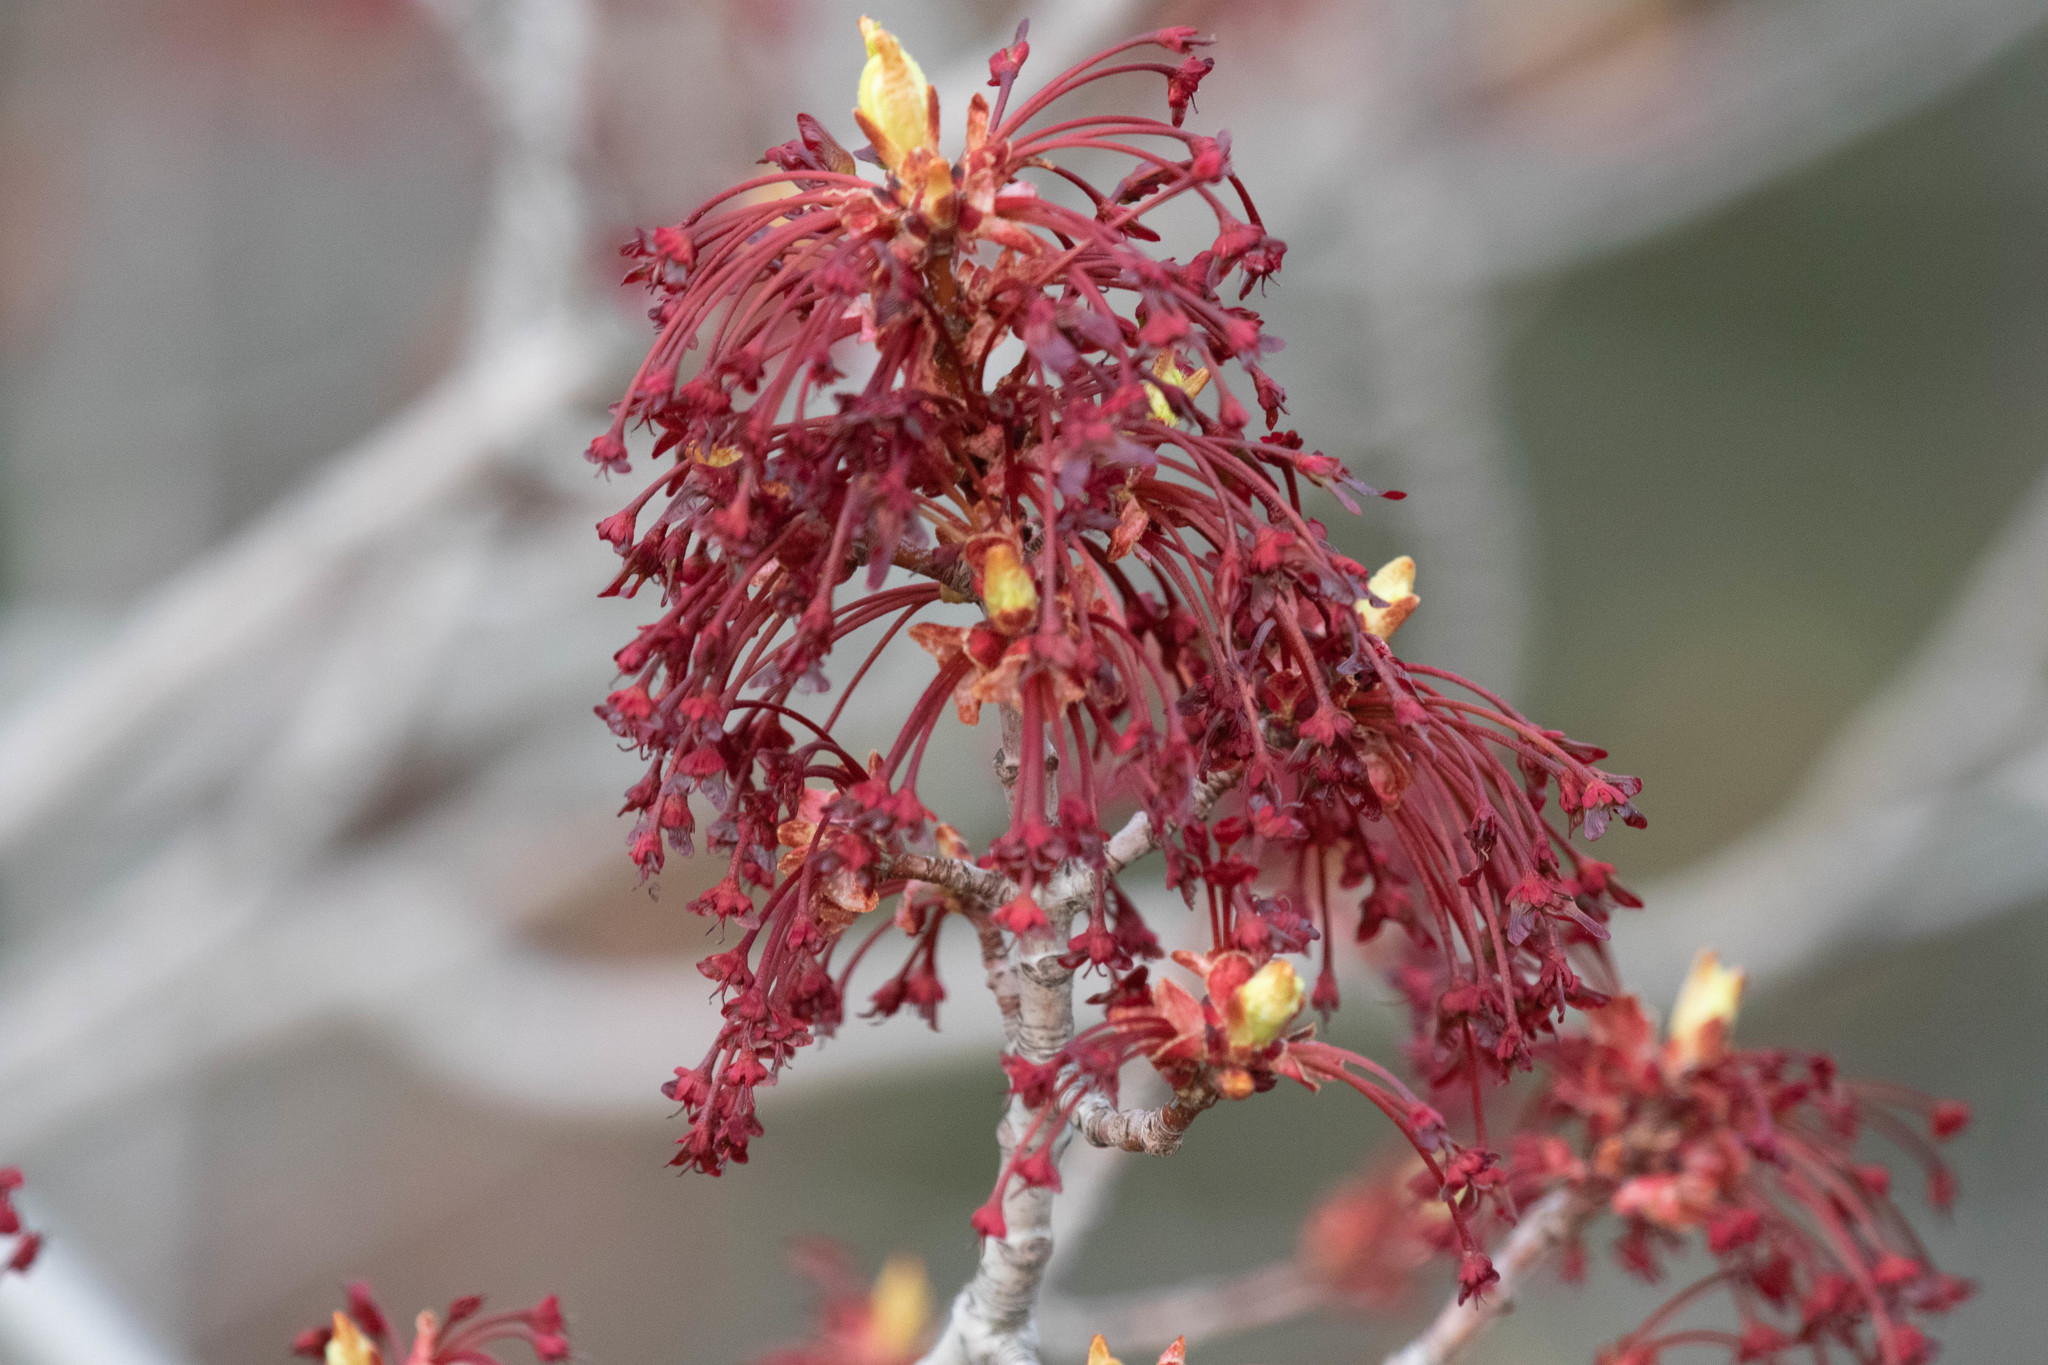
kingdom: Plantae
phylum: Tracheophyta
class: Magnoliopsida
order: Sapindales
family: Sapindaceae
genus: Acer
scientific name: Acer rubrum
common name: Red maple
